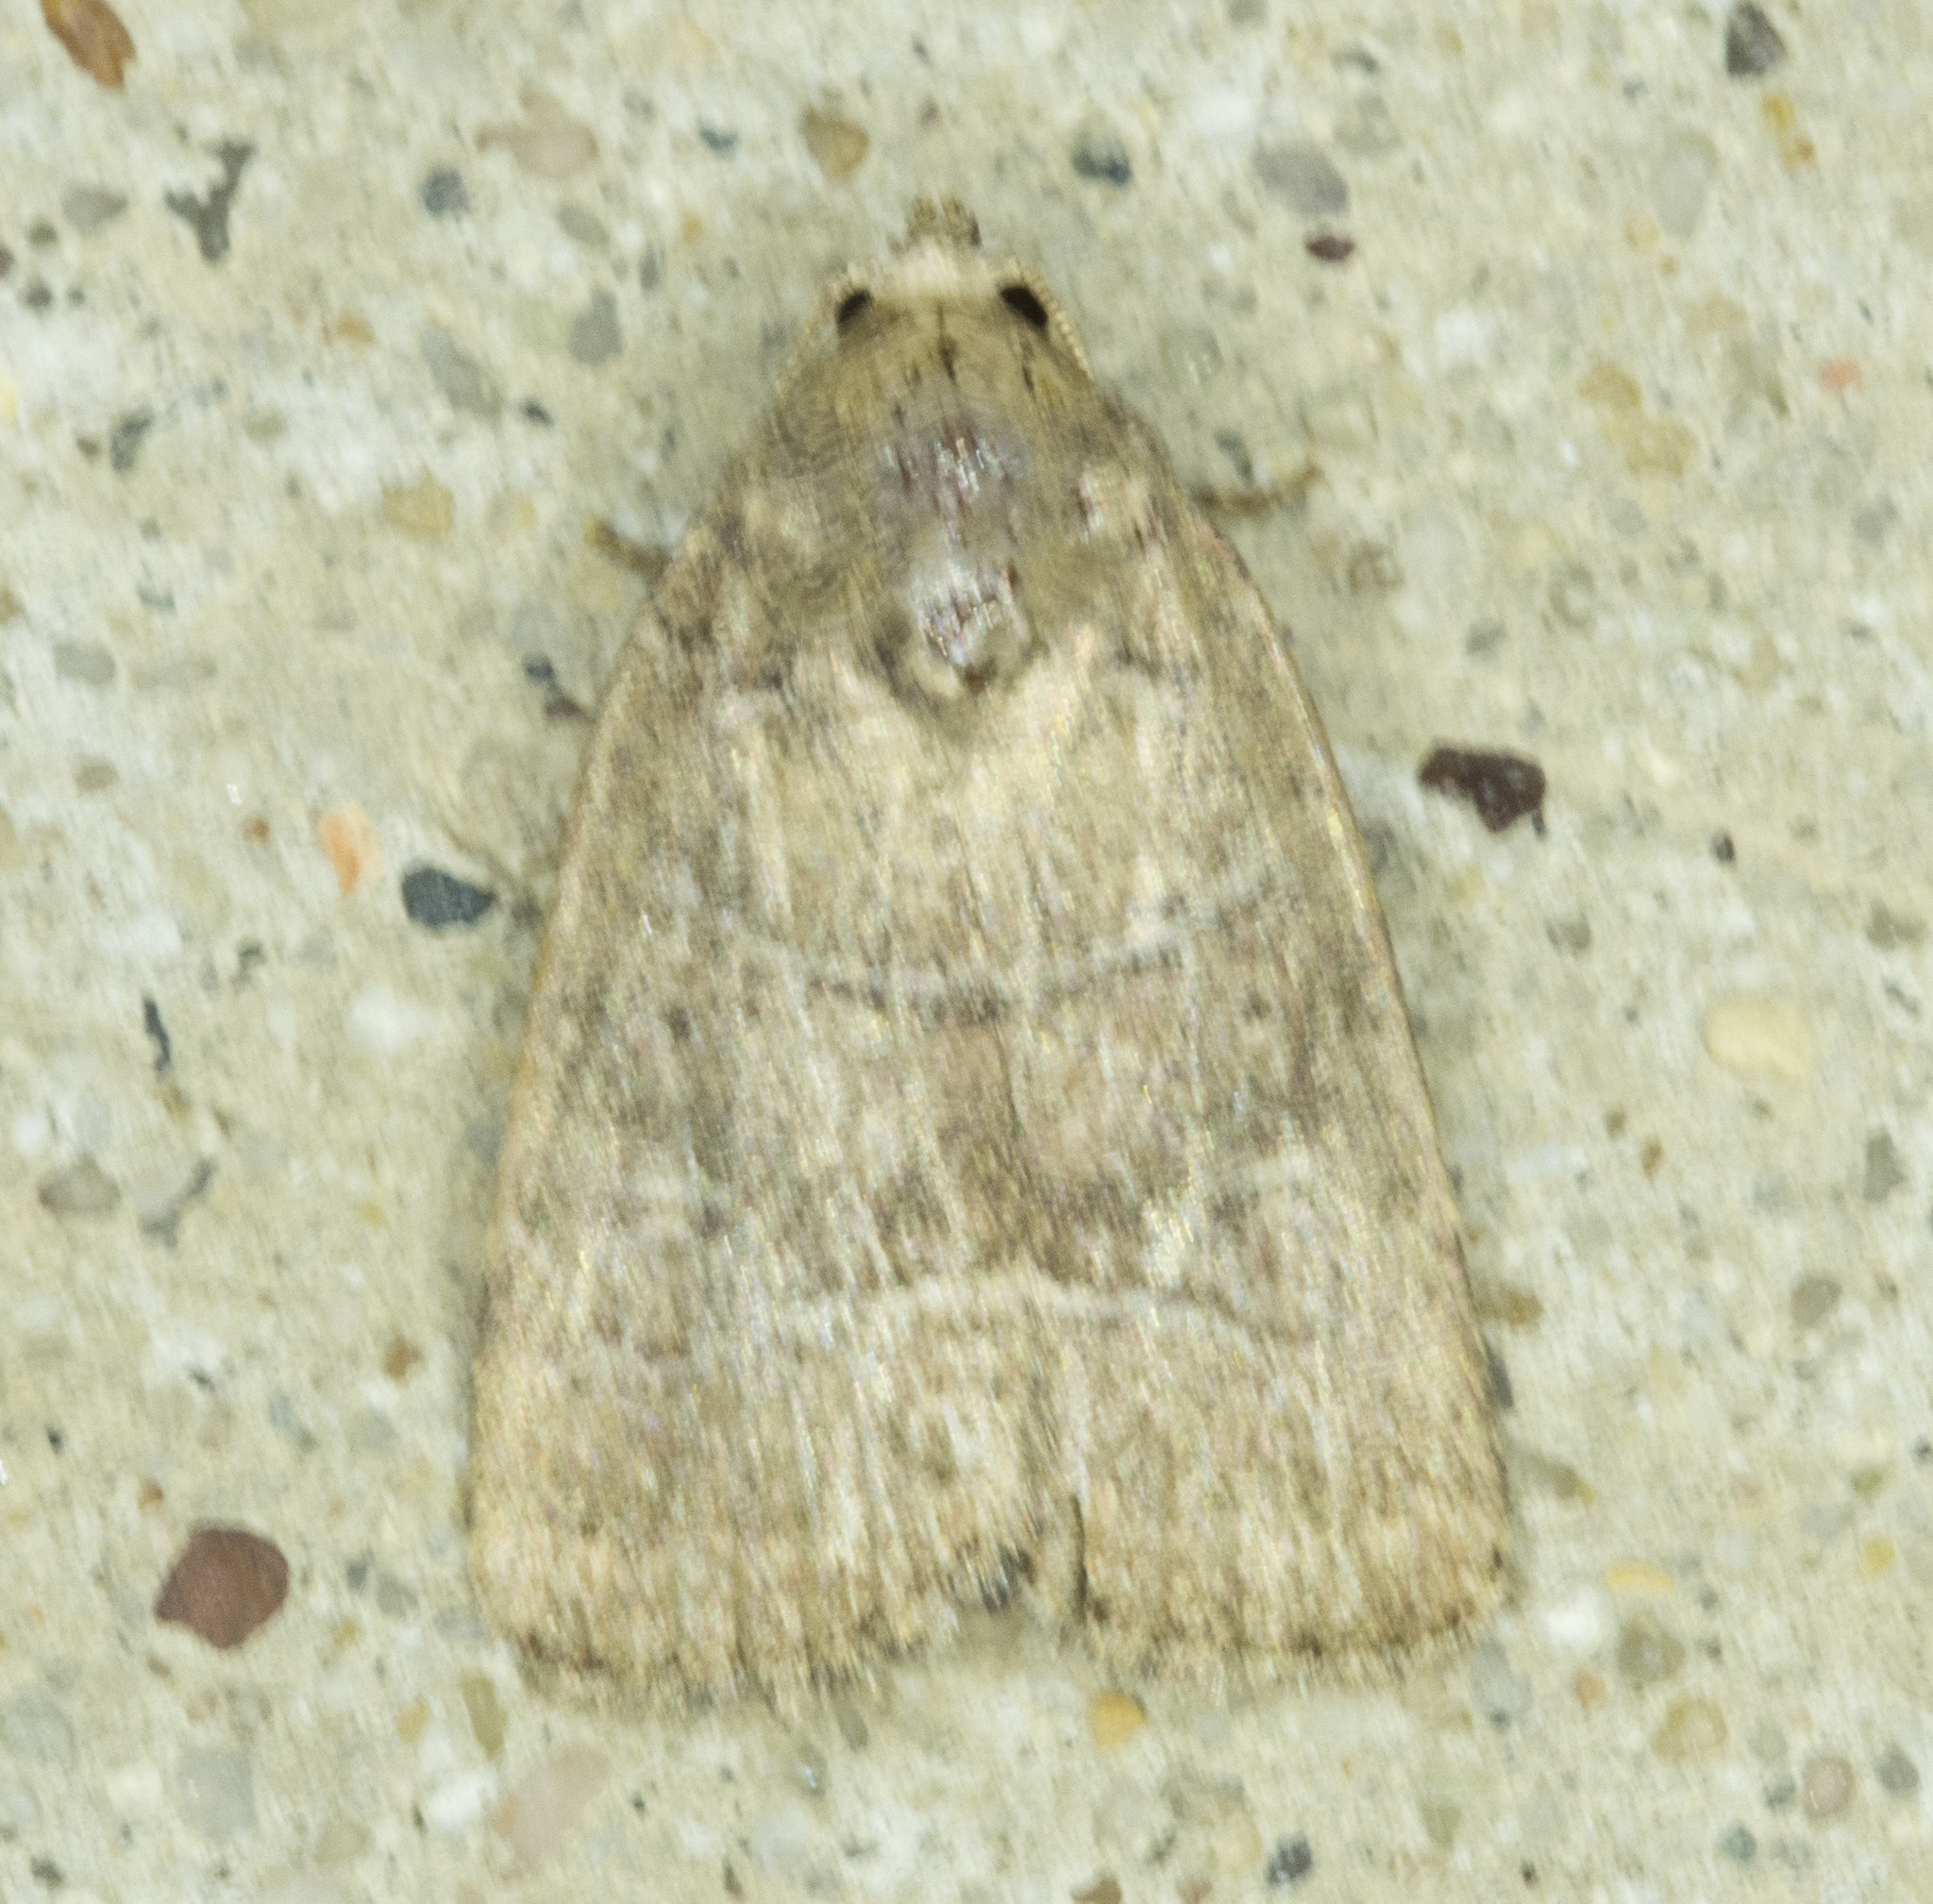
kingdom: Animalia
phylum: Arthropoda
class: Insecta
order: Lepidoptera
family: Noctuidae
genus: Elaphria
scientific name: Elaphria grata
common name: Grateful midget moth
